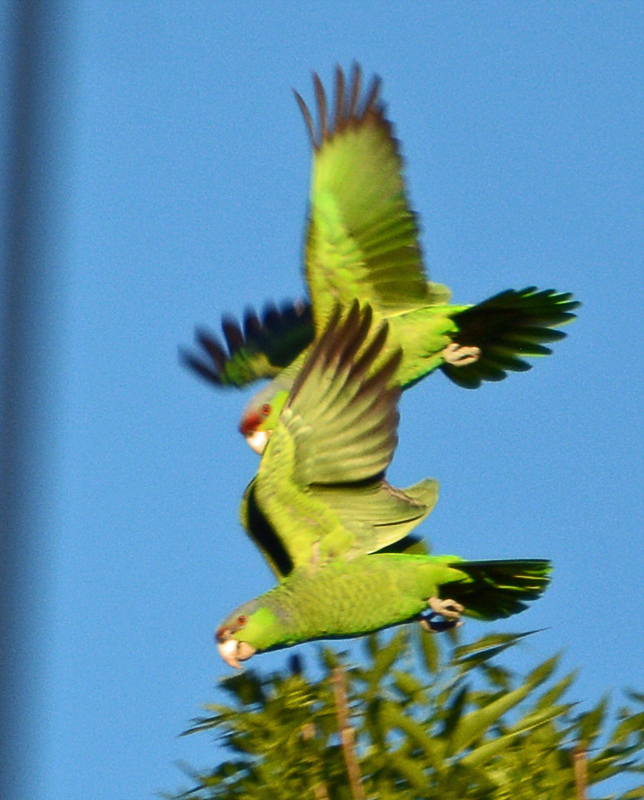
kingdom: Animalia
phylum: Chordata
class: Aves
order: Psittaciformes
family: Psittacidae
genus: Amazona
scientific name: Amazona finschi
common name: Lilac-crowned amazon
